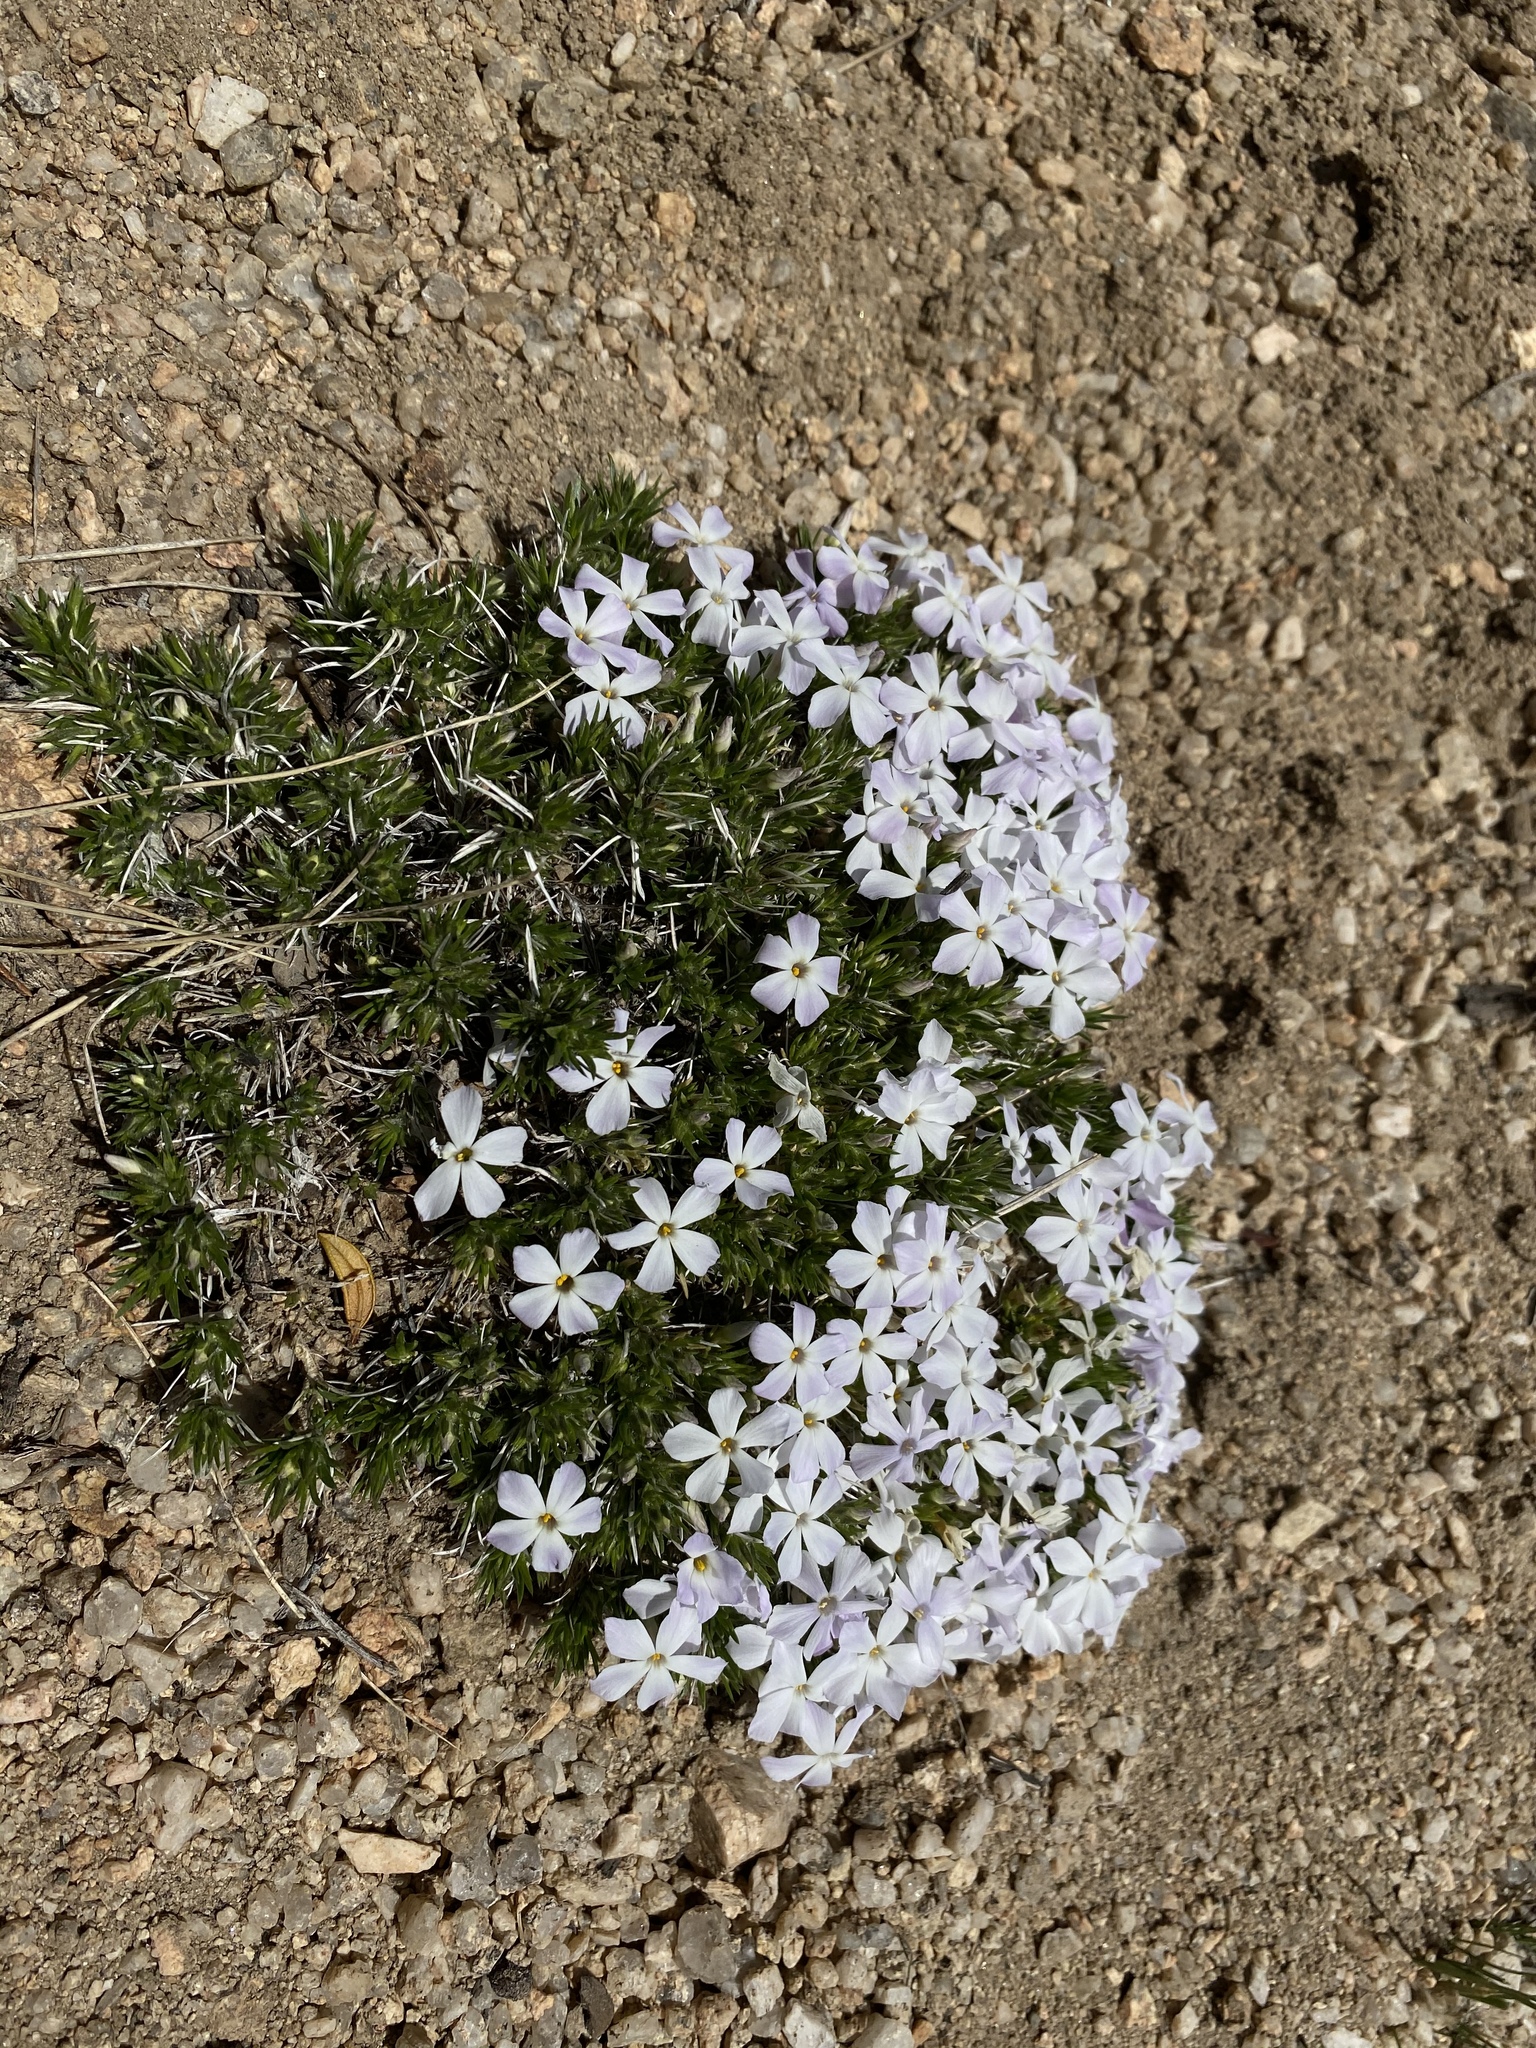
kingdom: Plantae
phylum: Tracheophyta
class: Magnoliopsida
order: Ericales
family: Polemoniaceae
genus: Phlox
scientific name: Phlox diffusa
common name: Mat phlox
